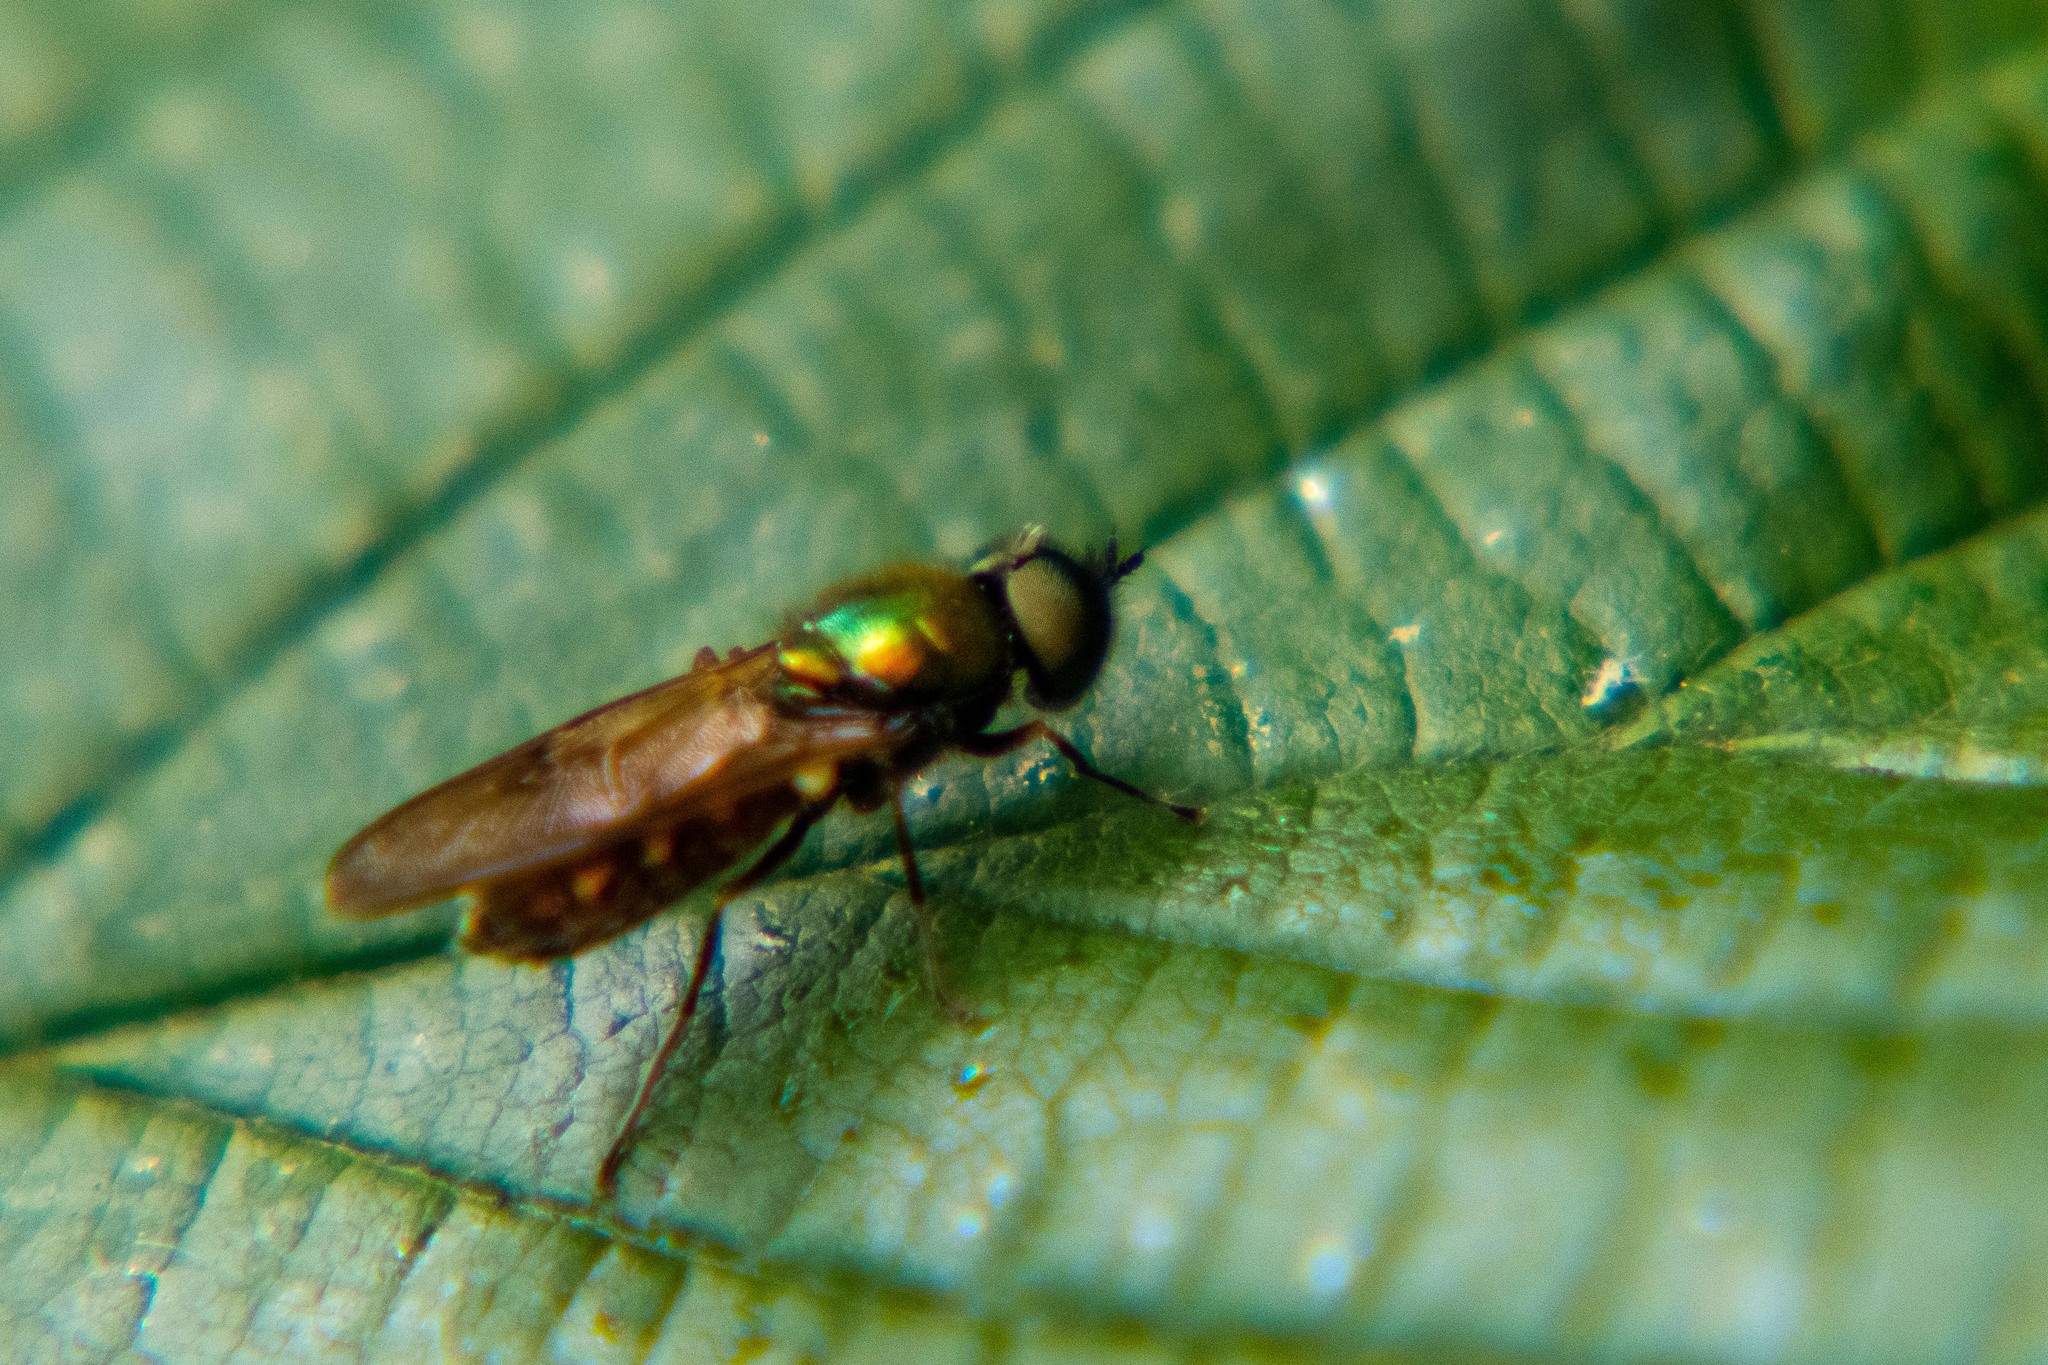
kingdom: Animalia
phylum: Arthropoda
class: Insecta
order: Diptera
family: Stratiomyidae
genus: Chloromyia
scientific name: Chloromyia formosa
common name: Soldier fly
